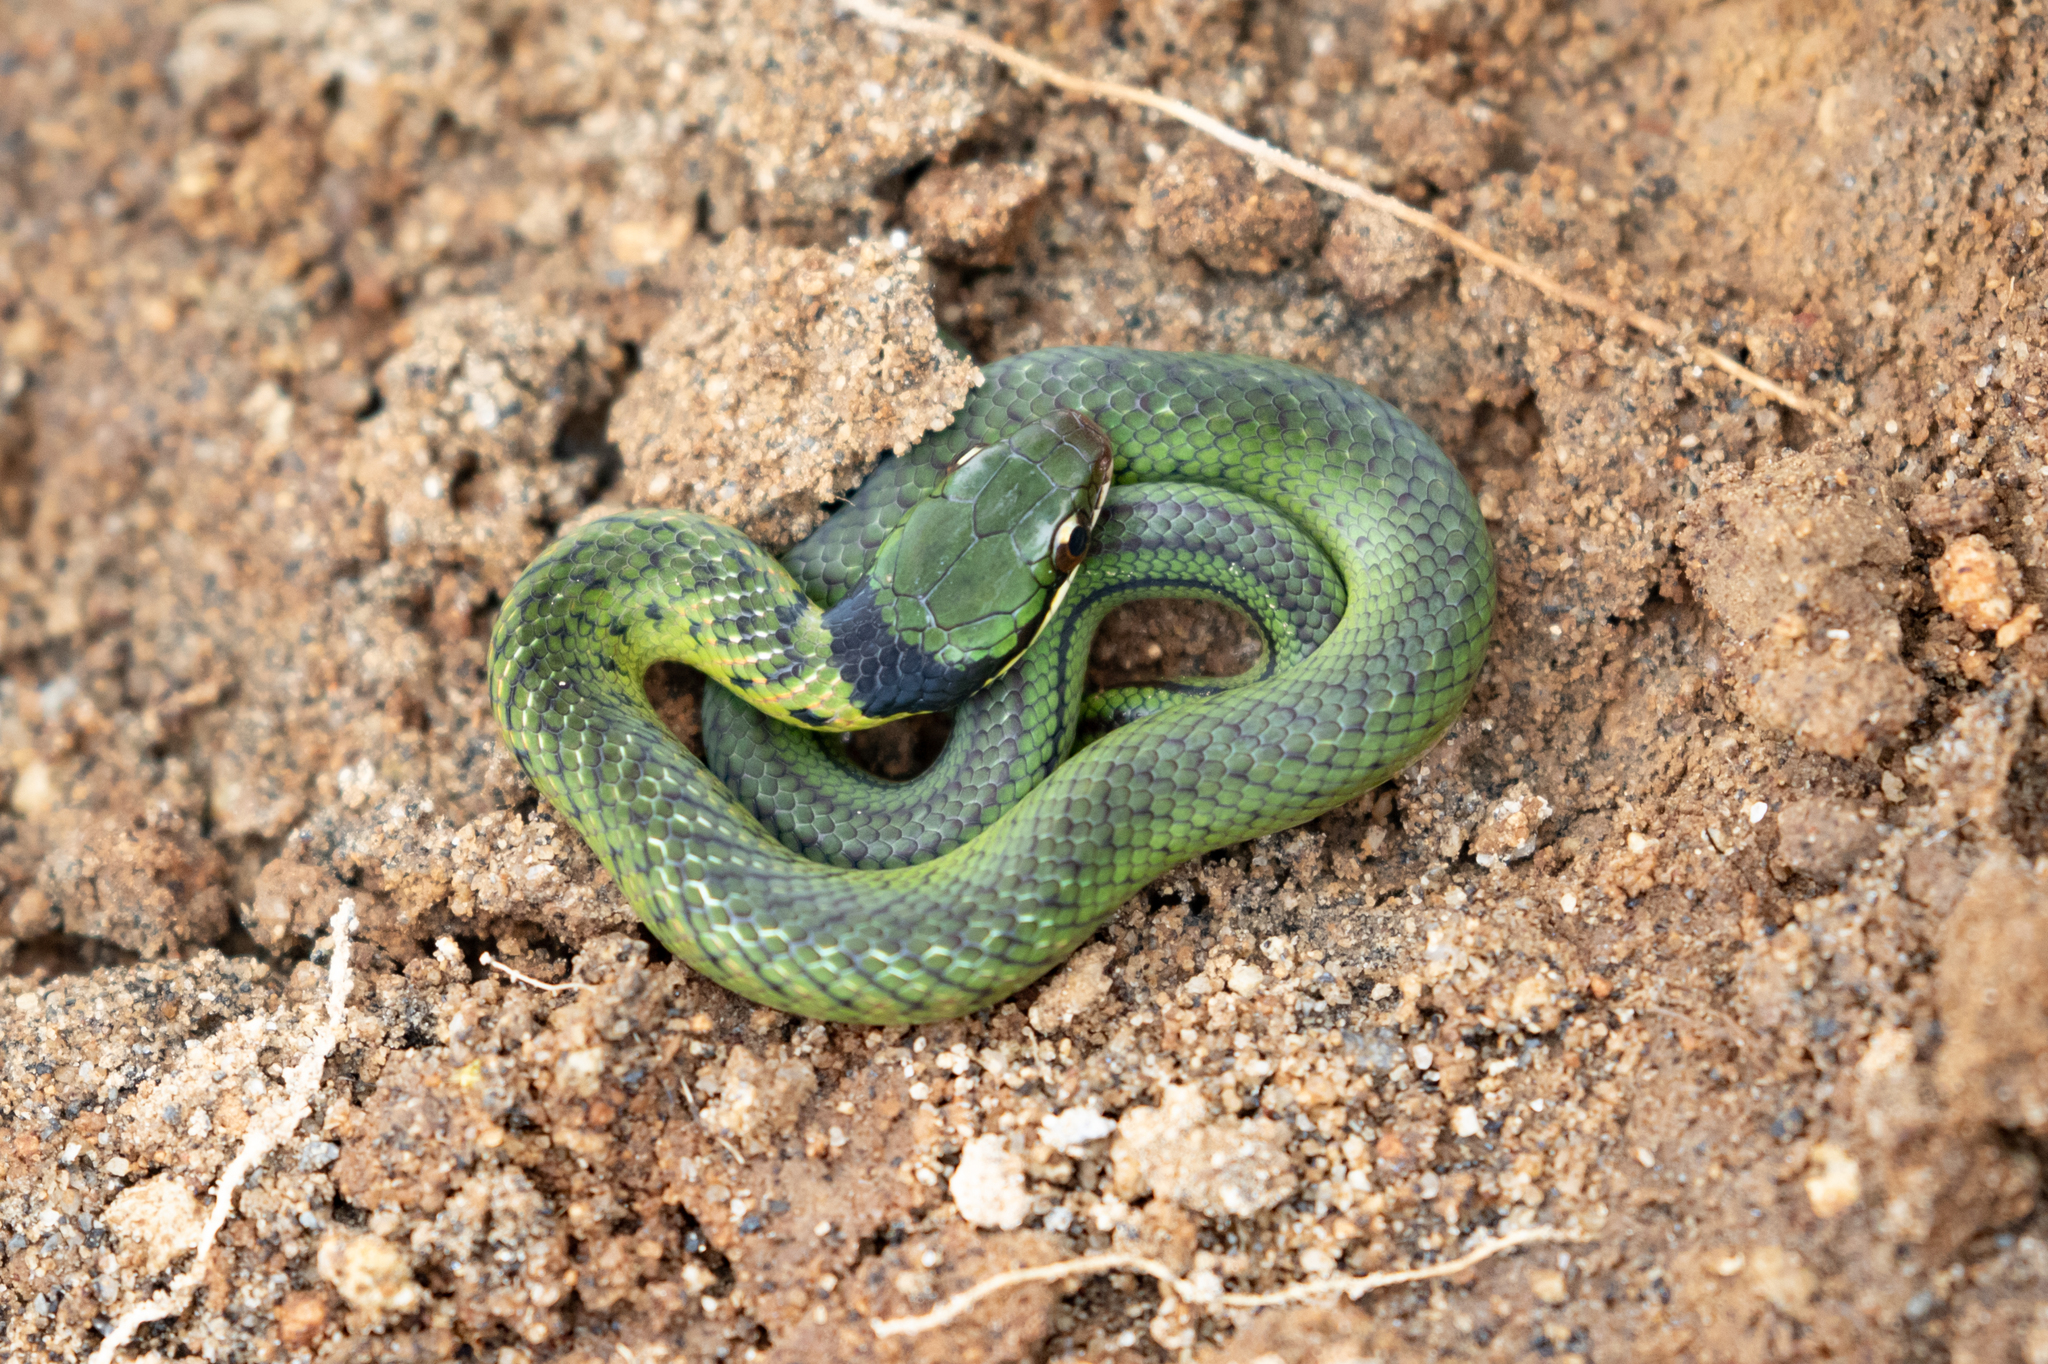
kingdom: Animalia
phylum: Chordata
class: Squamata
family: Colubridae
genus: Erythrolamprus
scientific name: Erythrolamprus epinephelus
